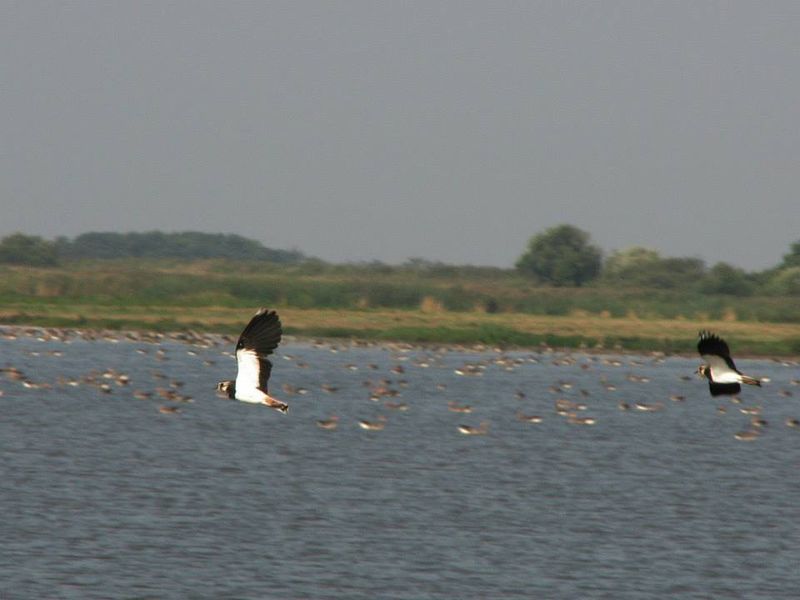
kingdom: Animalia
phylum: Chordata
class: Aves
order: Charadriiformes
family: Charadriidae
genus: Vanellus
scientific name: Vanellus vanellus
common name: Northern lapwing
